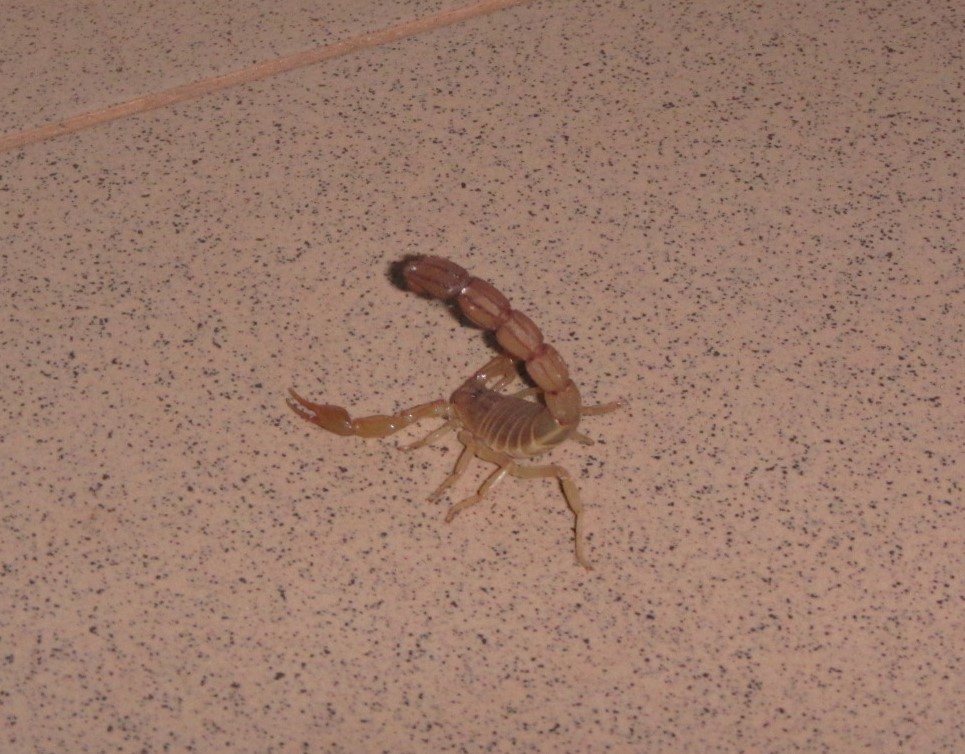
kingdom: Animalia
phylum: Arthropoda
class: Arachnida
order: Scorpiones
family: Buthidae
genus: Androctonus
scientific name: Androctonus dekeyseri
